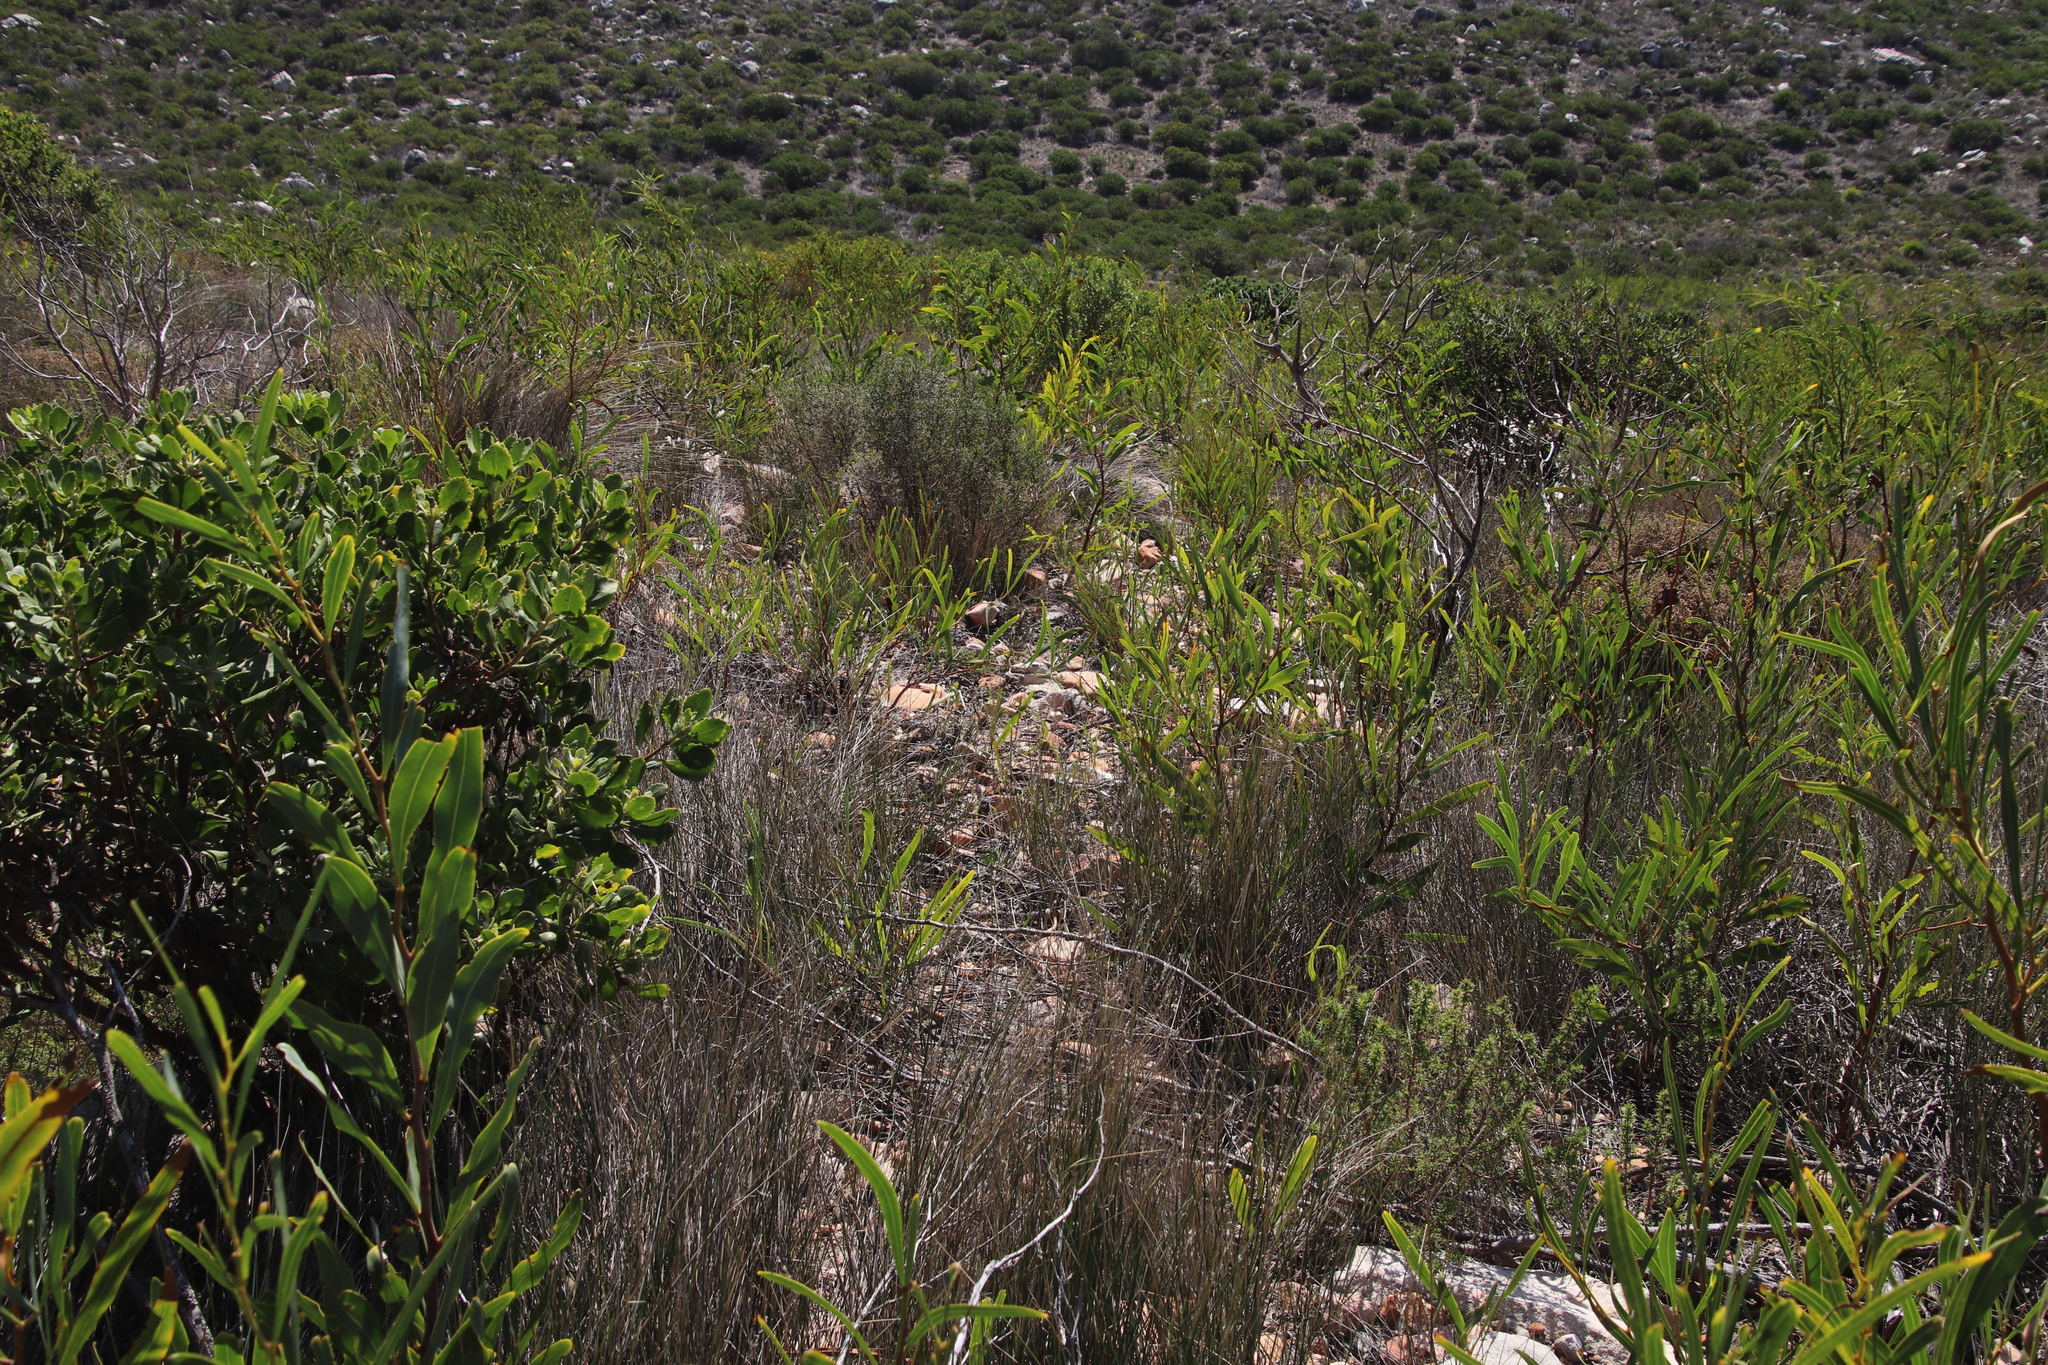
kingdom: Plantae
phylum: Tracheophyta
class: Magnoliopsida
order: Fabales
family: Fabaceae
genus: Acacia
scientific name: Acacia saligna
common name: Orange wattle
